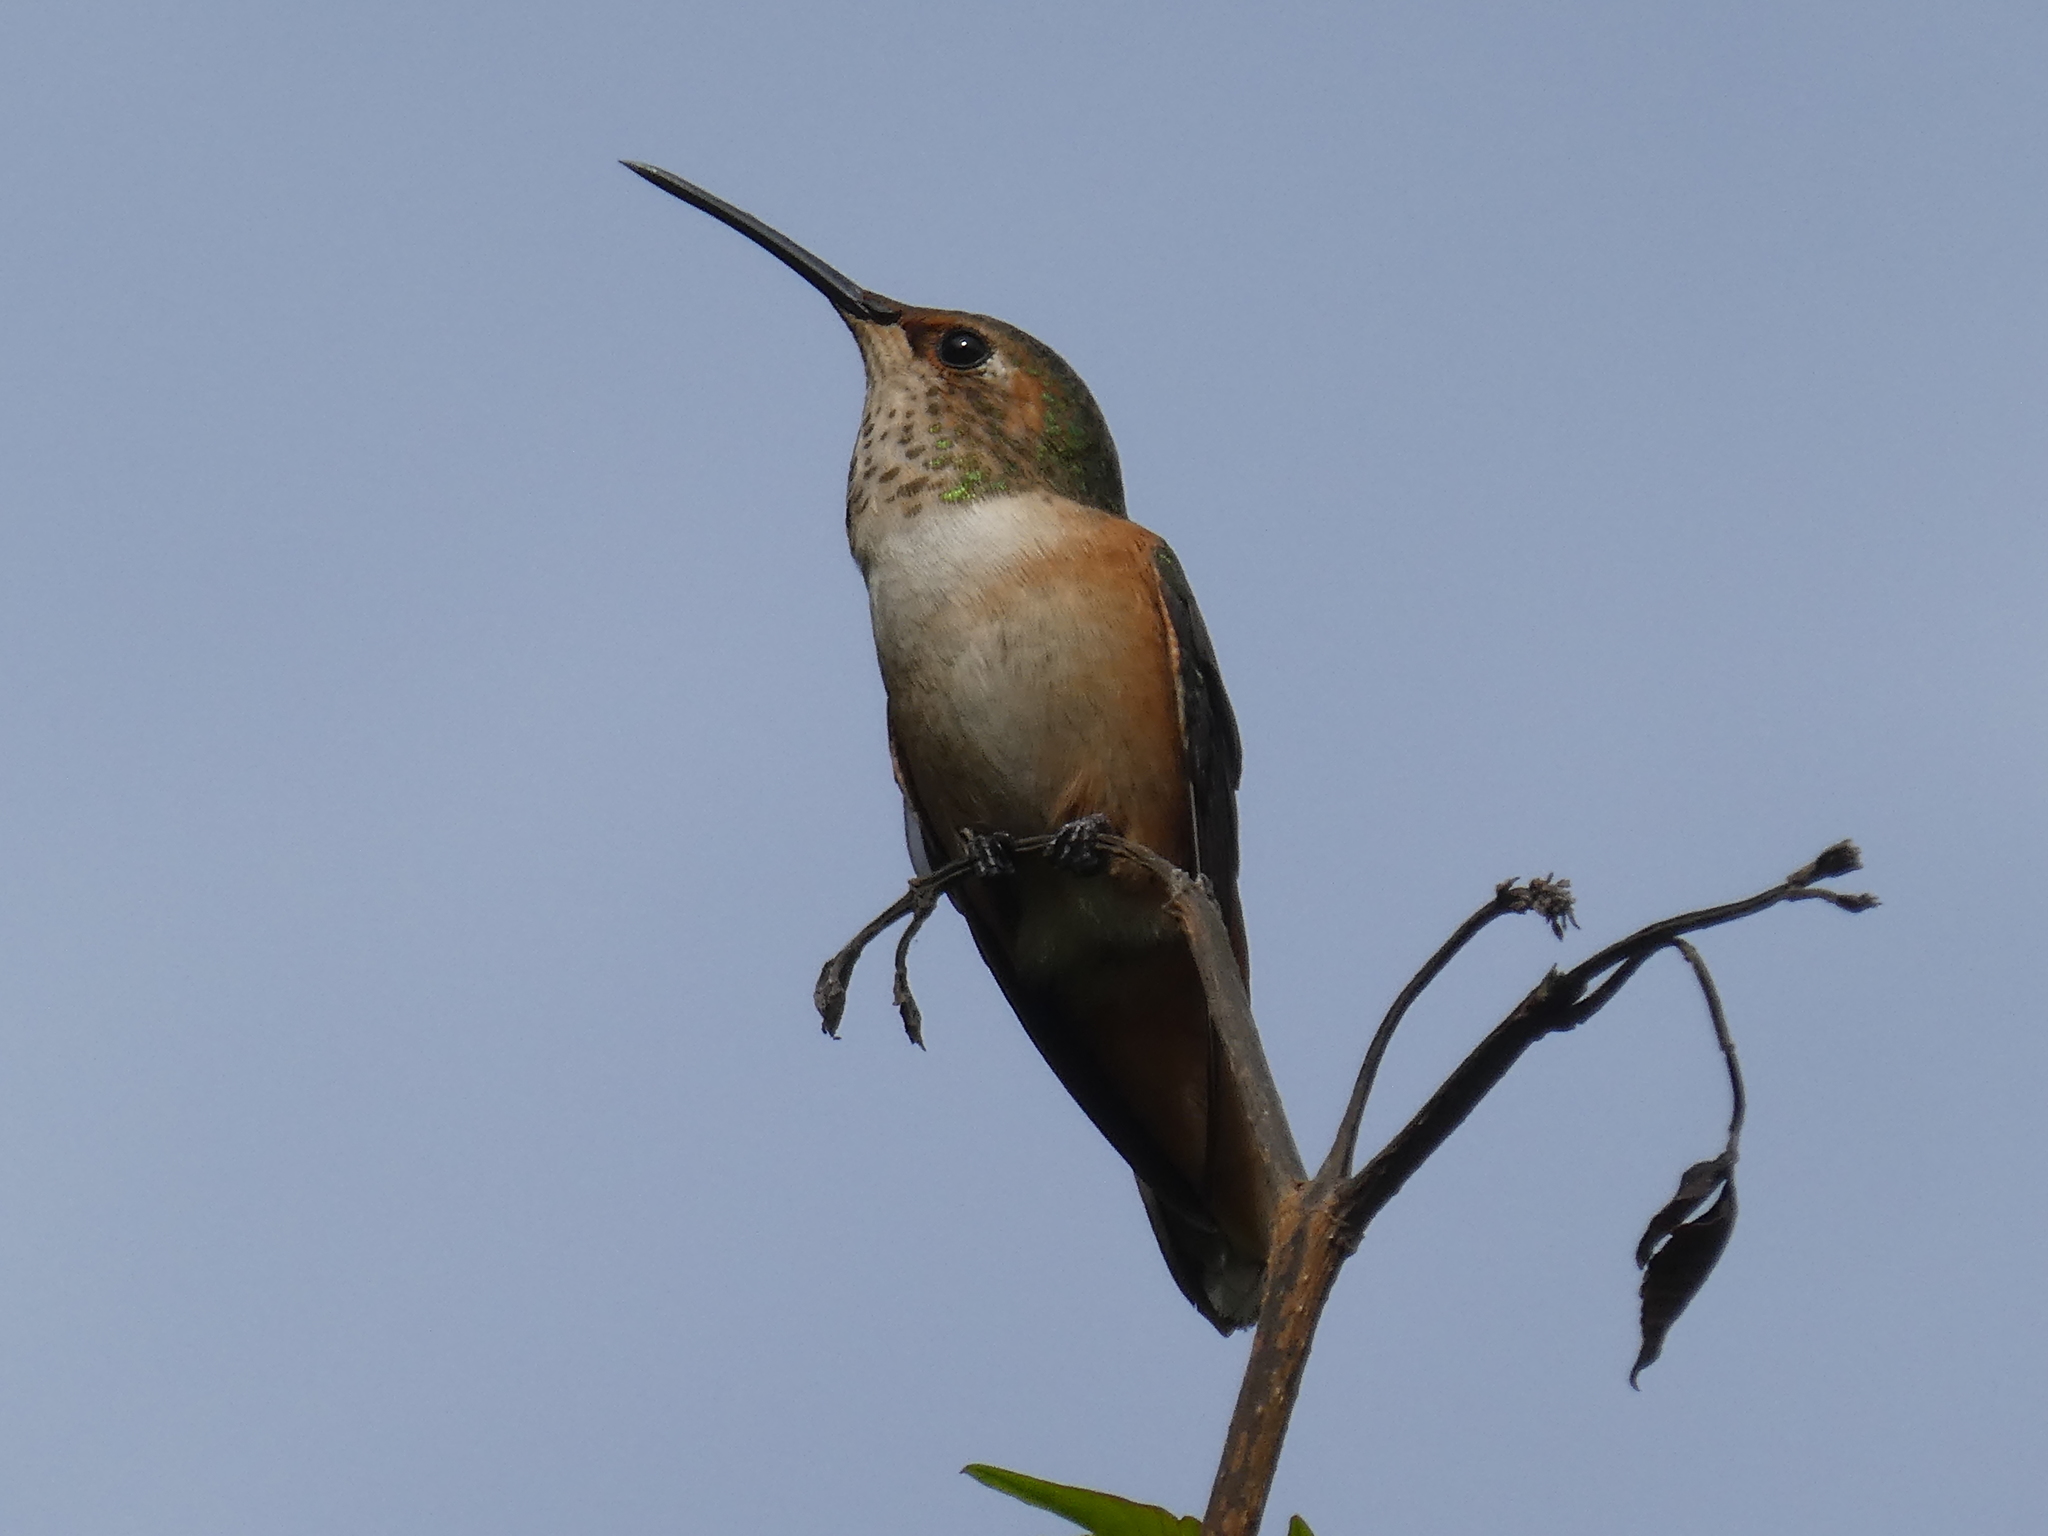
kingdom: Animalia
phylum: Chordata
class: Aves
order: Apodiformes
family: Trochilidae
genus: Selasphorus
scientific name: Selasphorus
